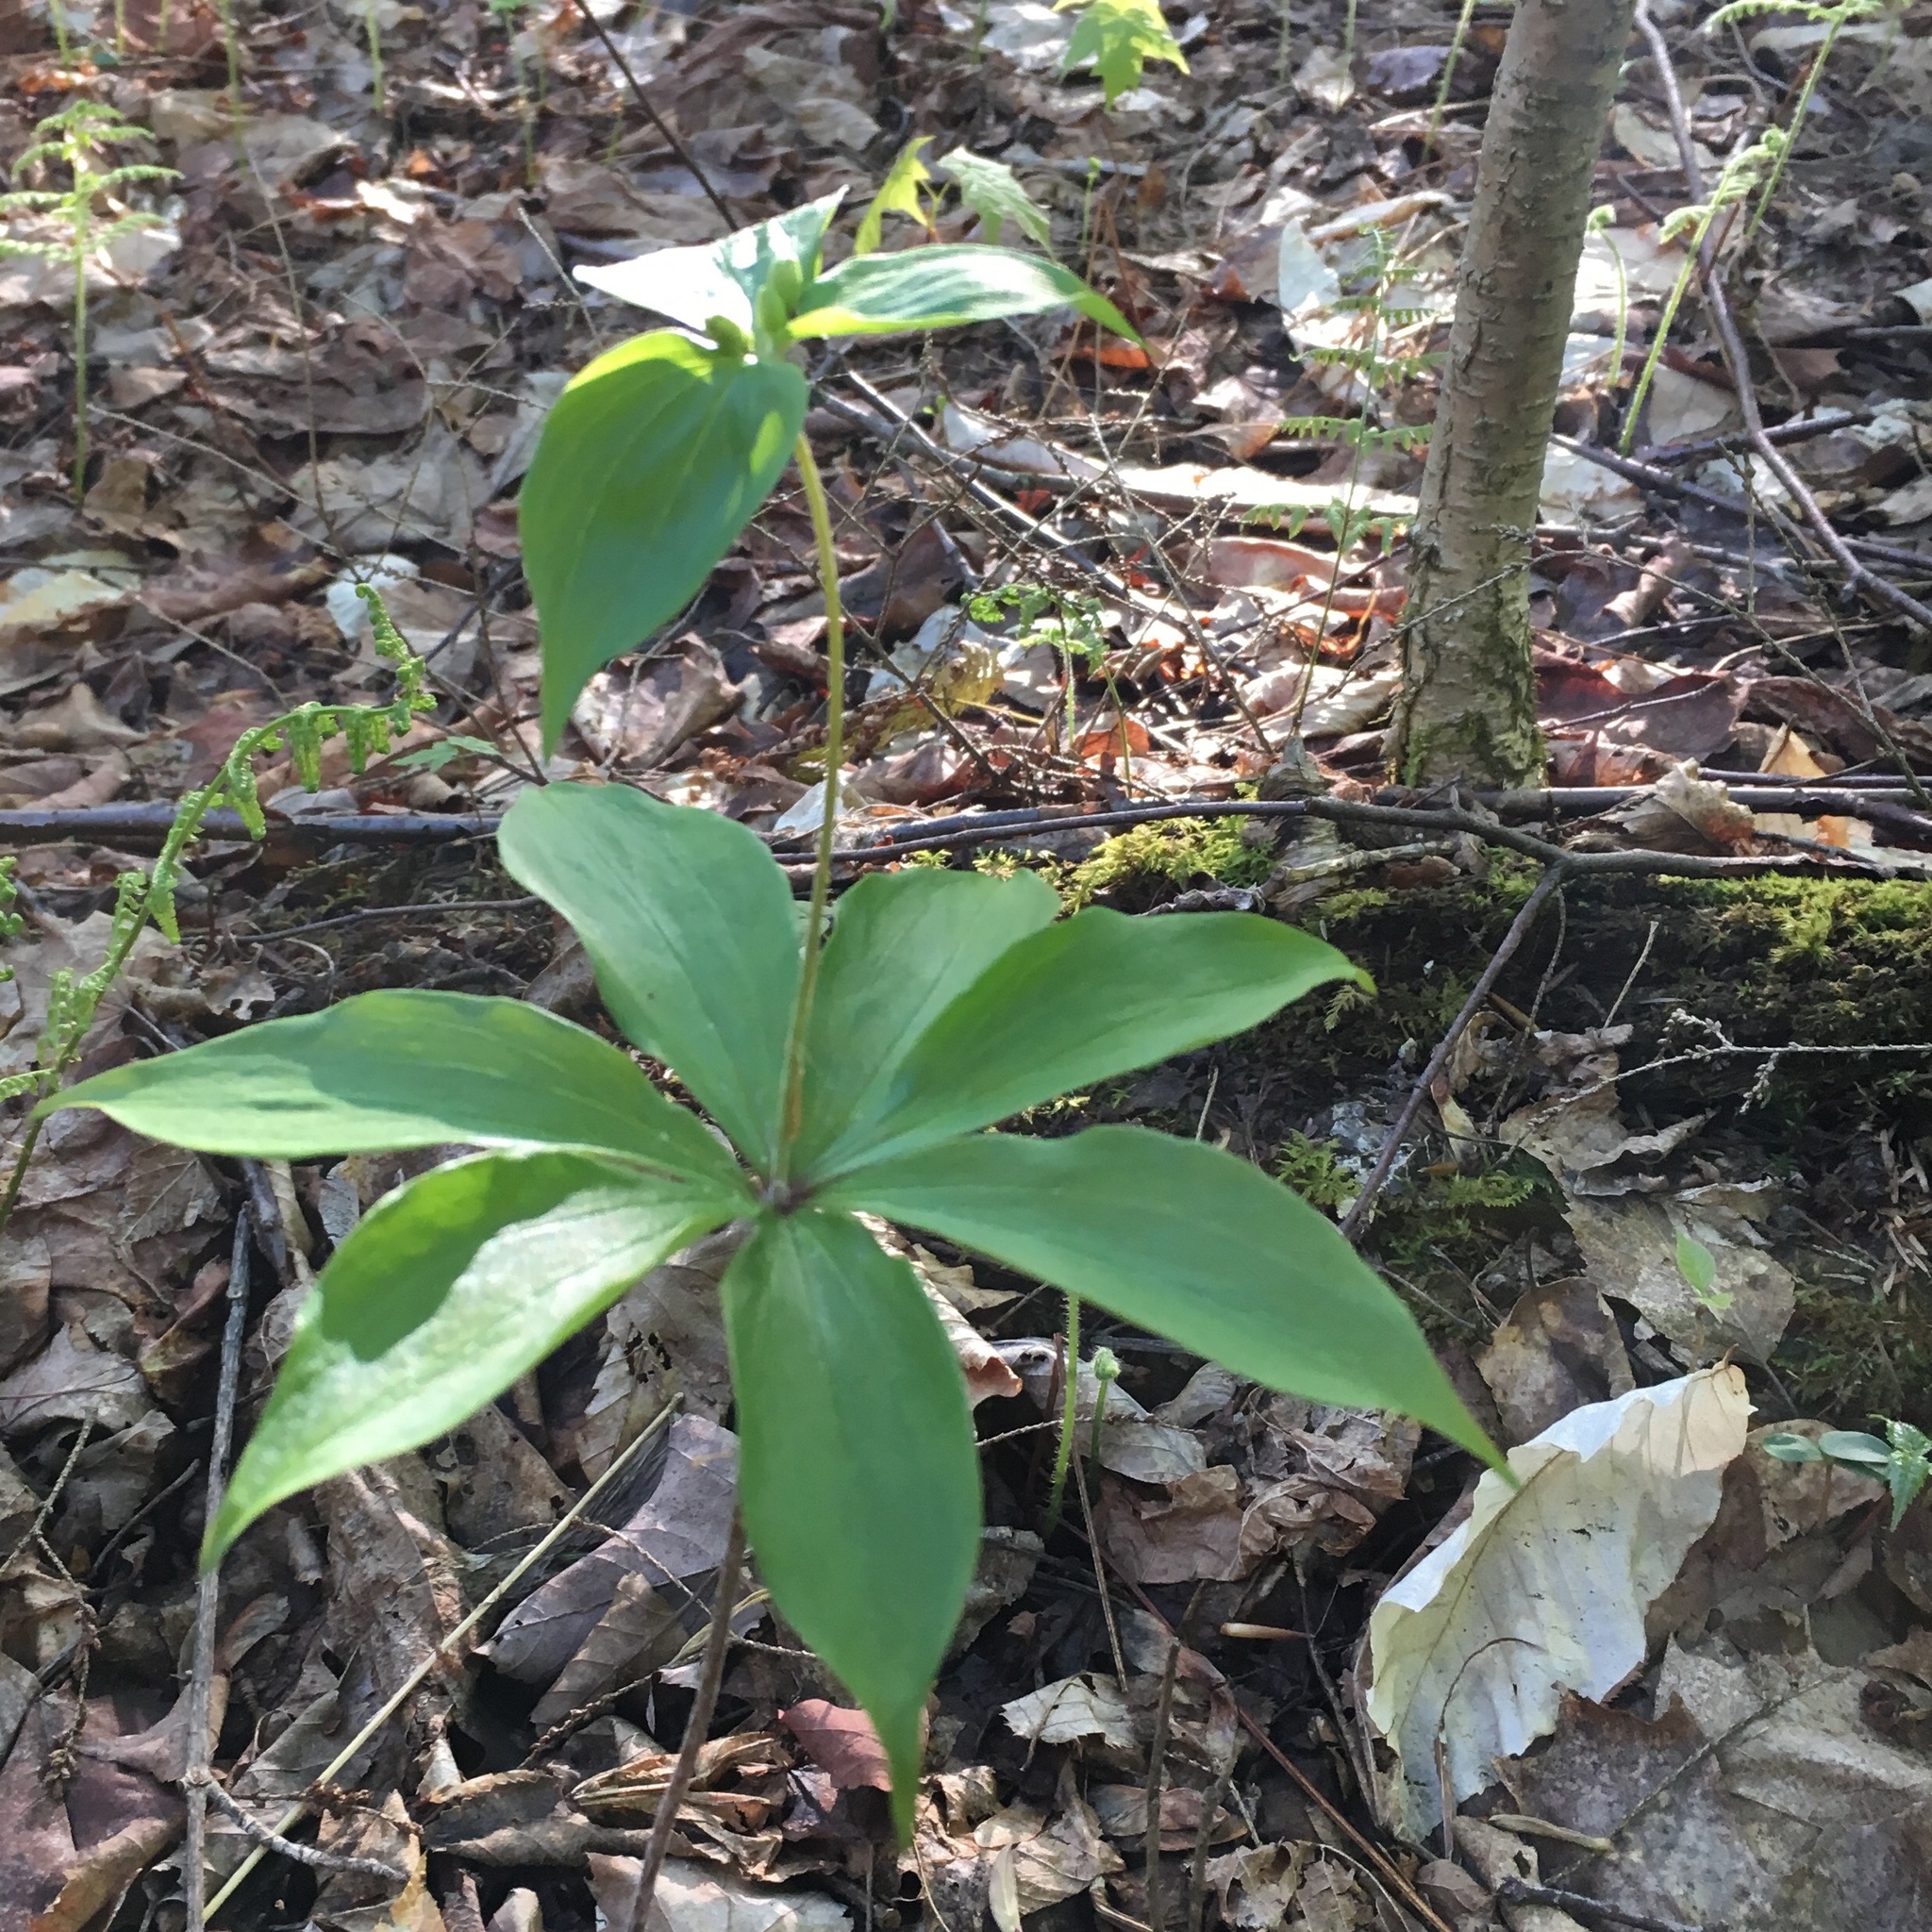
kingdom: Plantae
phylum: Tracheophyta
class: Liliopsida
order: Liliales
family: Liliaceae
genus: Medeola
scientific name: Medeola virginiana
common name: Indian cucumber-root
